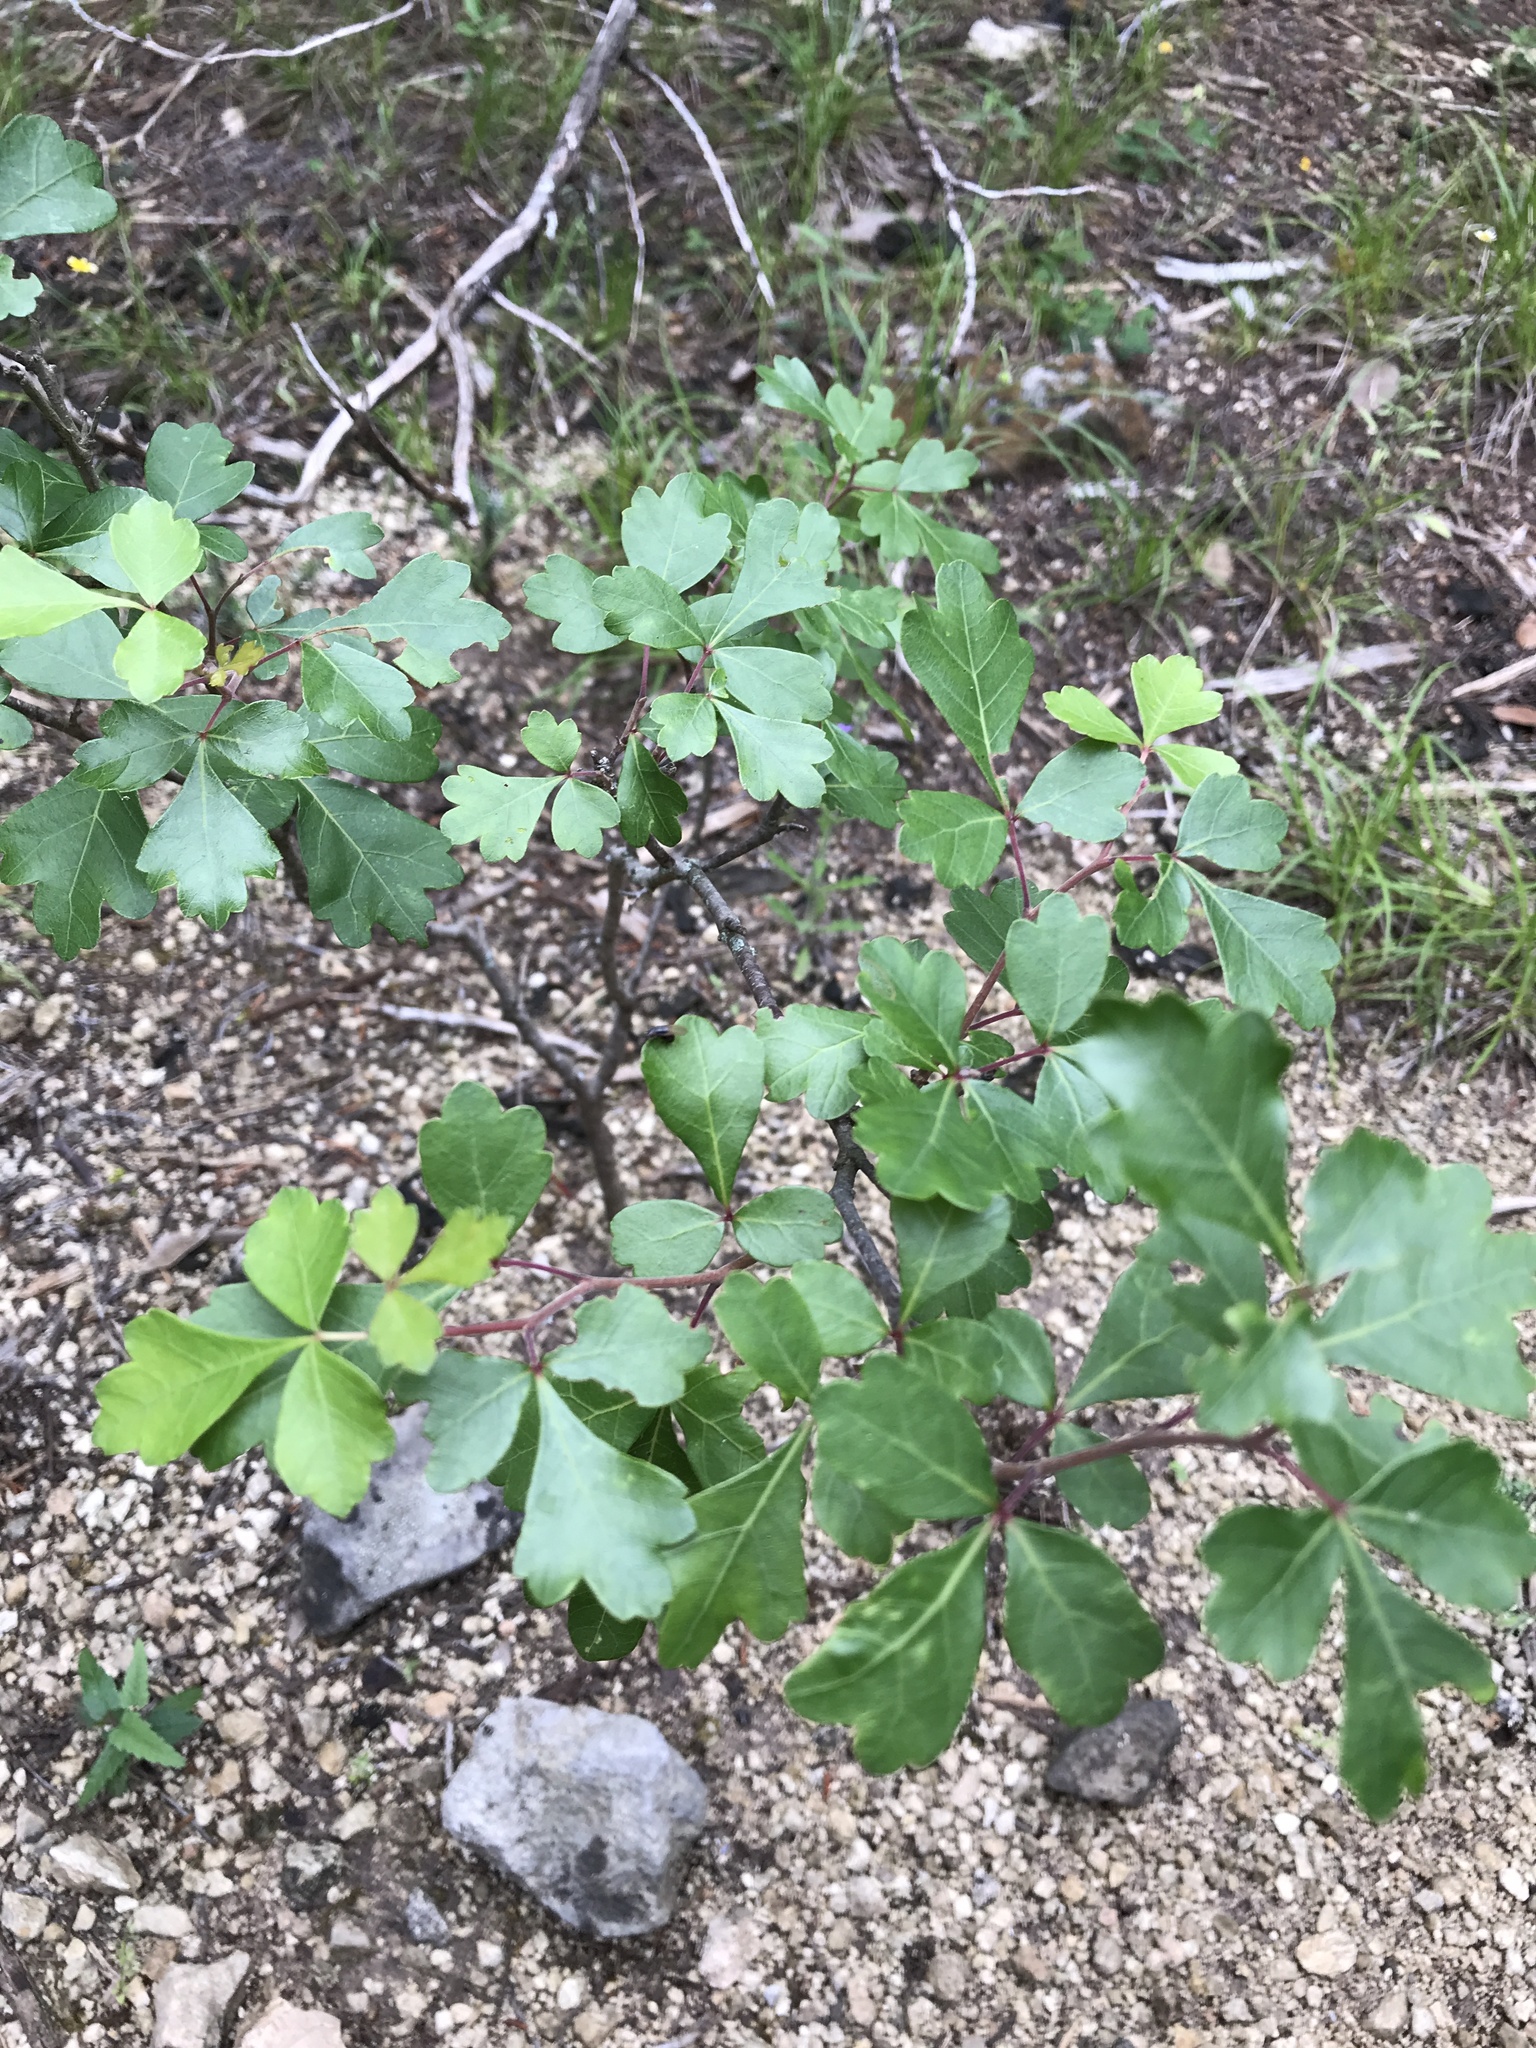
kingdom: Plantae
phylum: Tracheophyta
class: Magnoliopsida
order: Sapindales
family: Anacardiaceae
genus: Rhus
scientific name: Rhus aromatica
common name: Aromatic sumac
